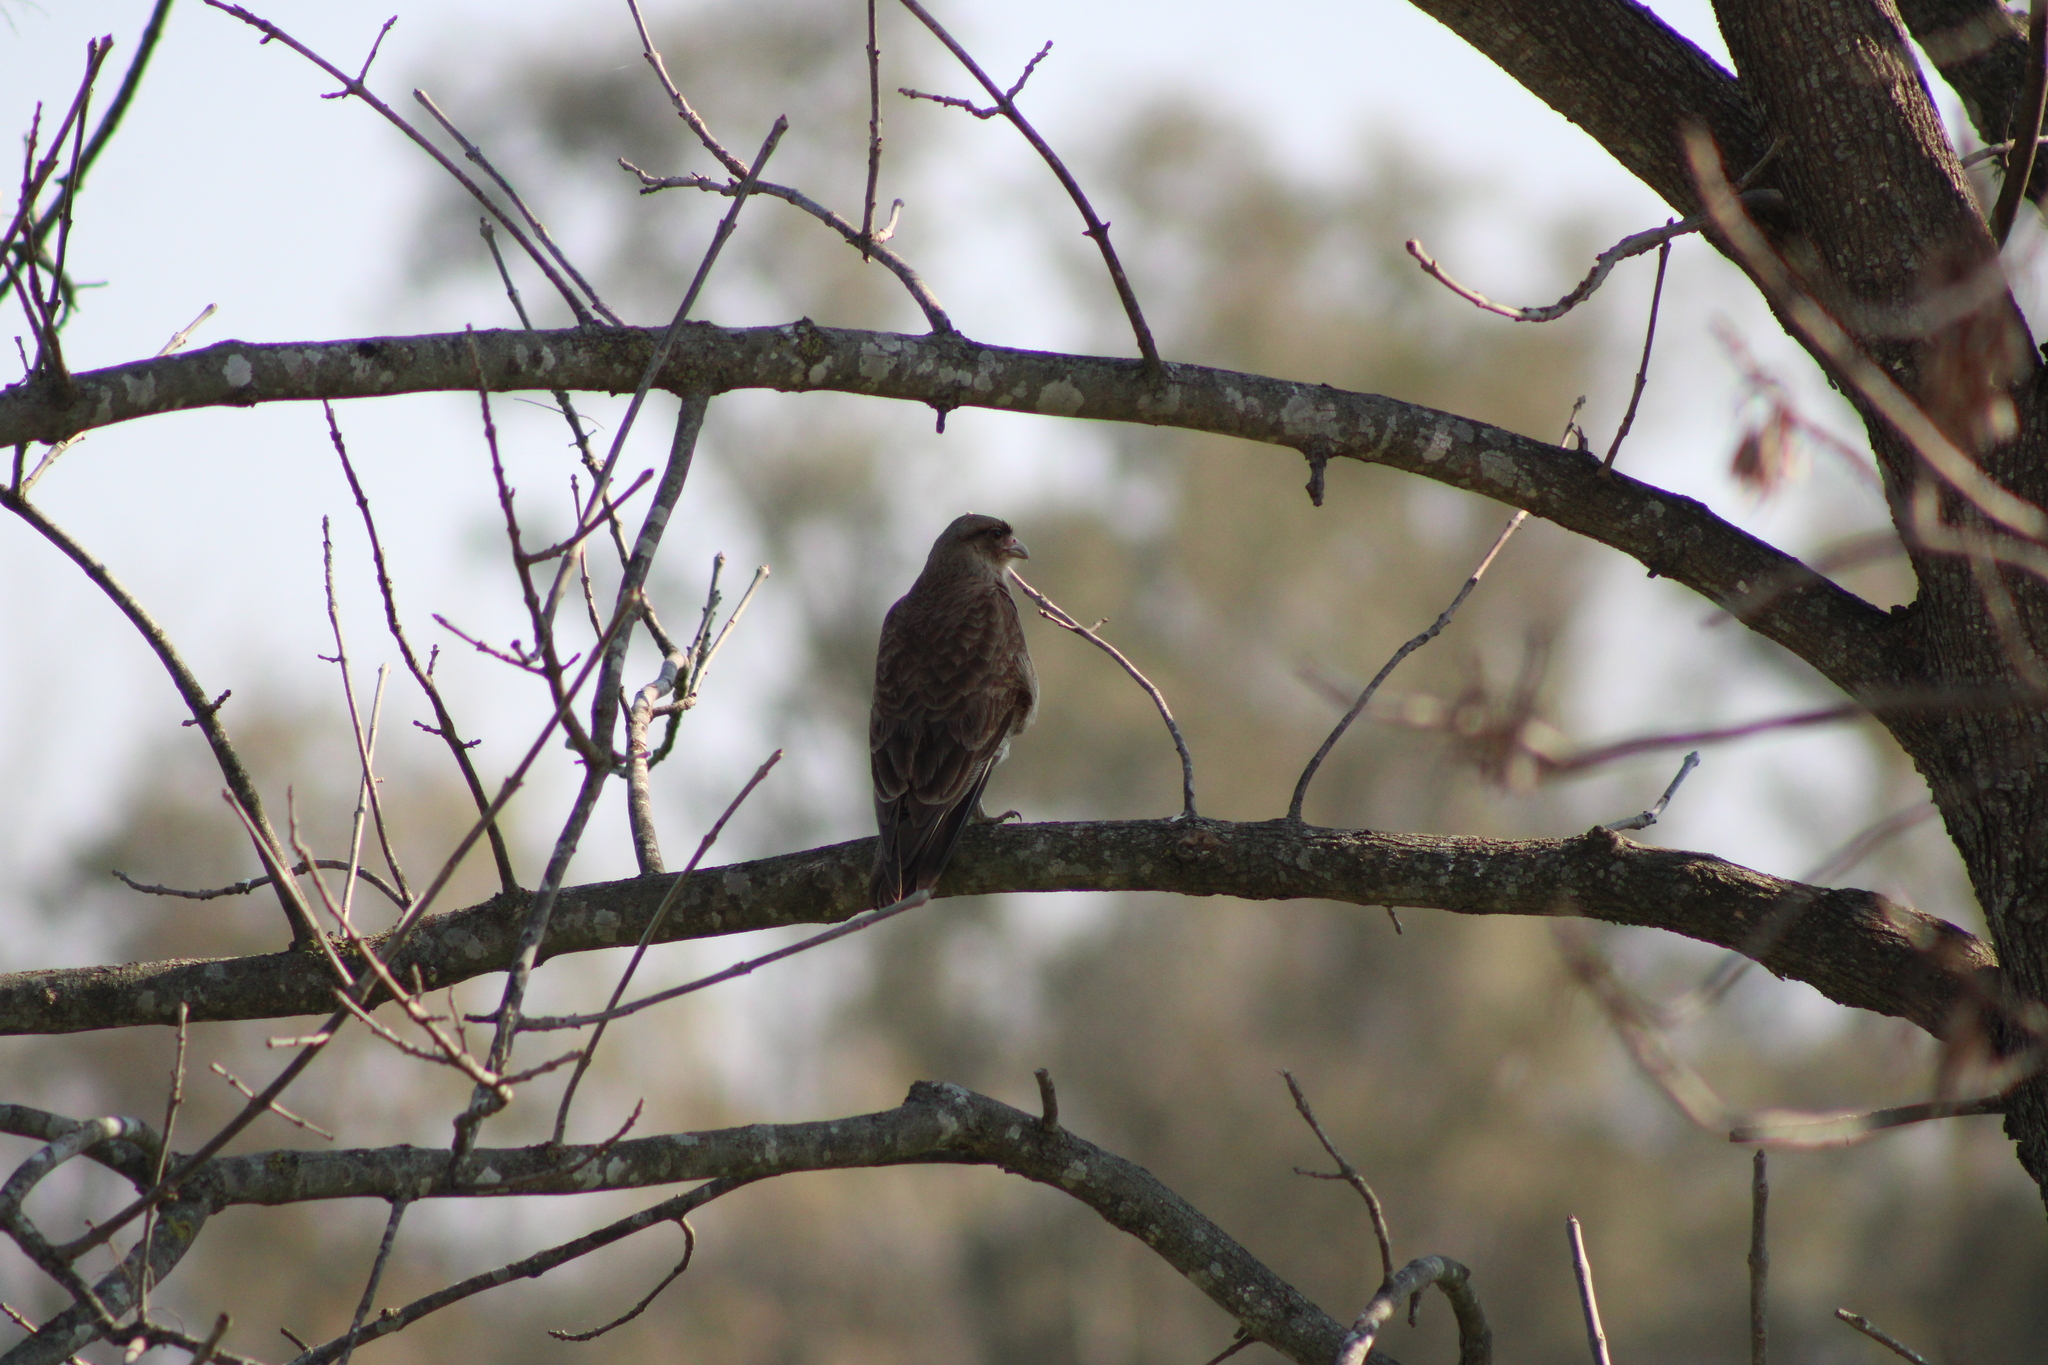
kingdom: Animalia
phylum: Chordata
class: Aves
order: Falconiformes
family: Falconidae
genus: Daptrius
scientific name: Daptrius
